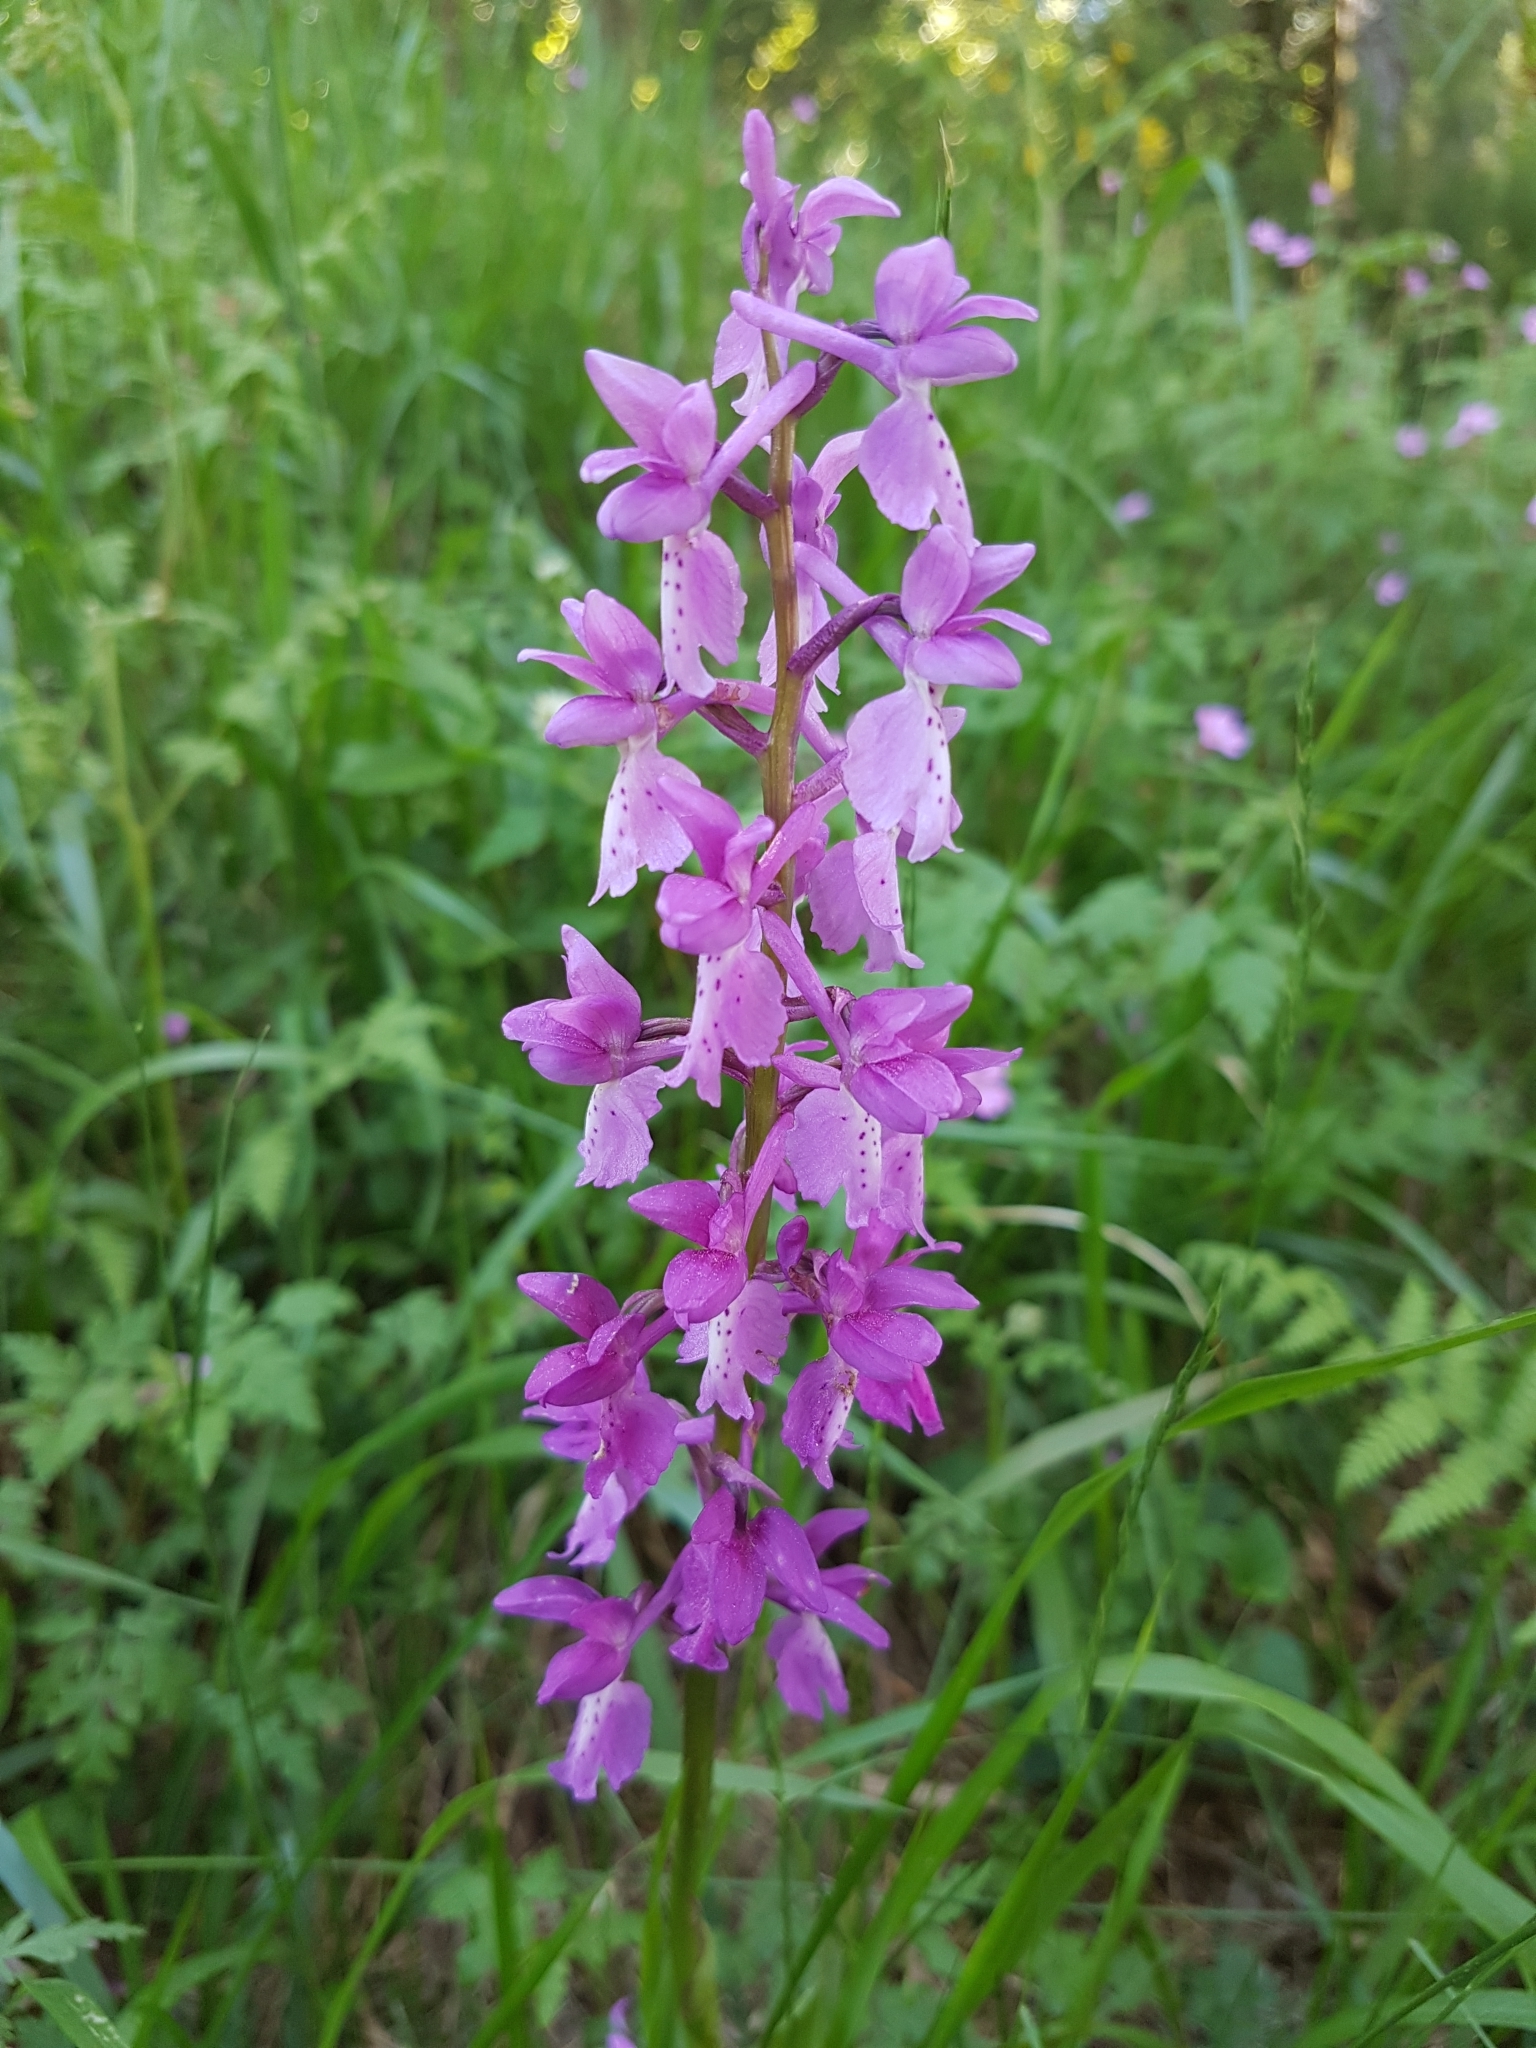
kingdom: Plantae
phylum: Tracheophyta
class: Liliopsida
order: Asparagales
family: Orchidaceae
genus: Orchis
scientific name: Orchis mascula
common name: Early-purple orchid
